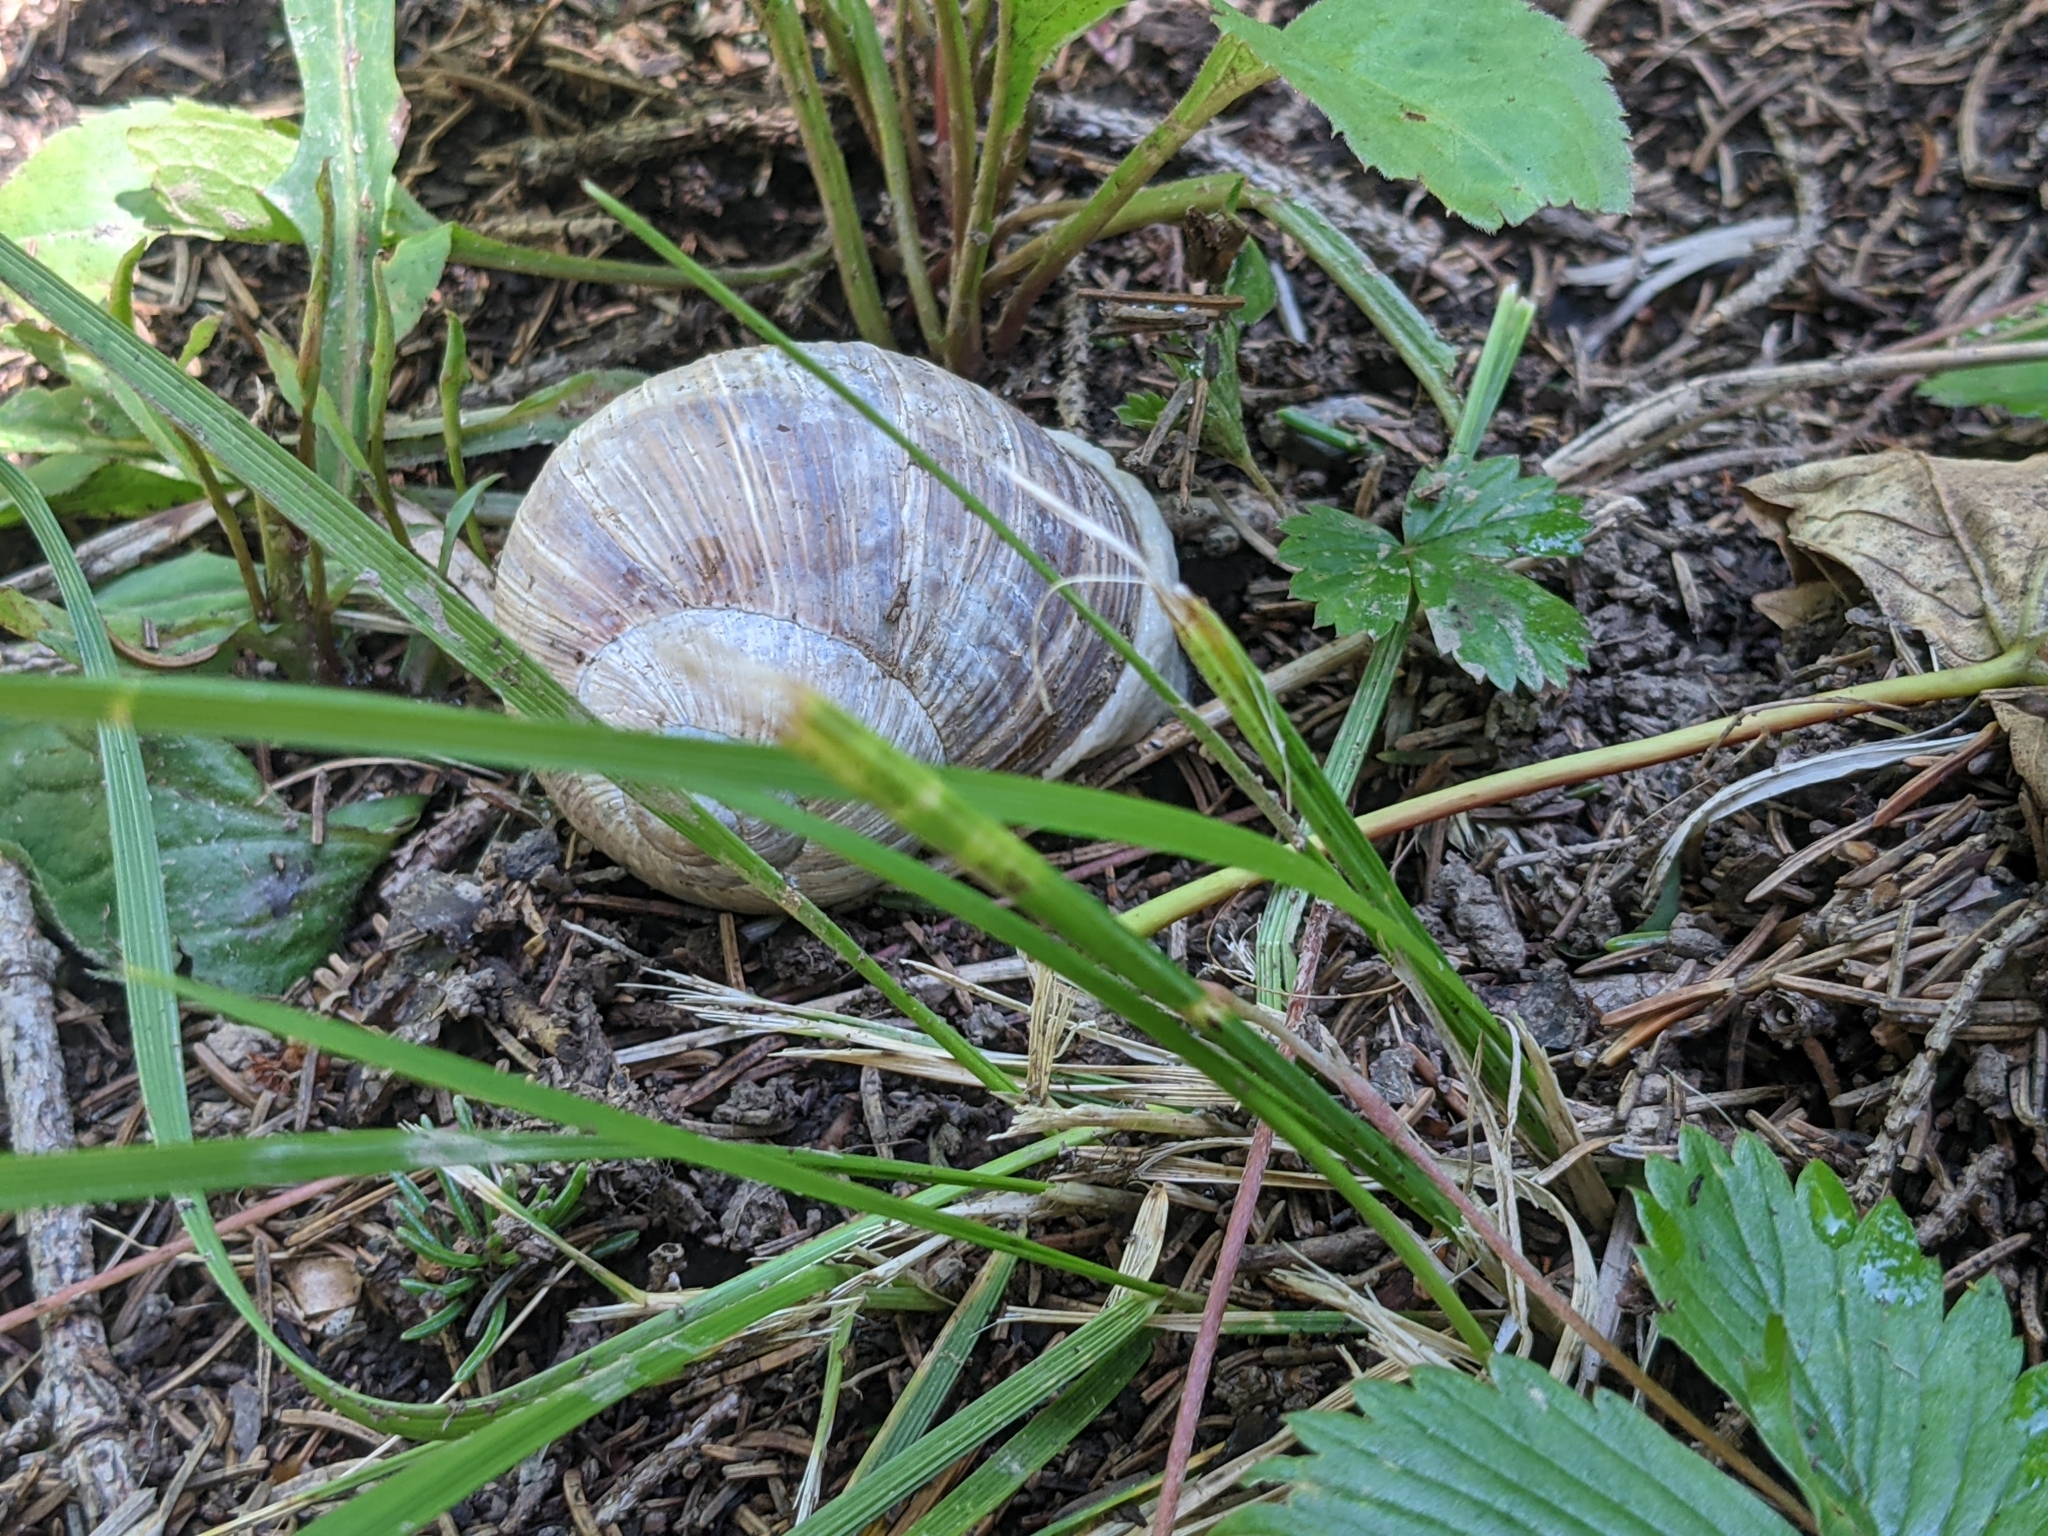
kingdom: Animalia
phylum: Mollusca
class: Gastropoda
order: Stylommatophora
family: Helicidae
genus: Helix
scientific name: Helix pomatia
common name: Roman snail
